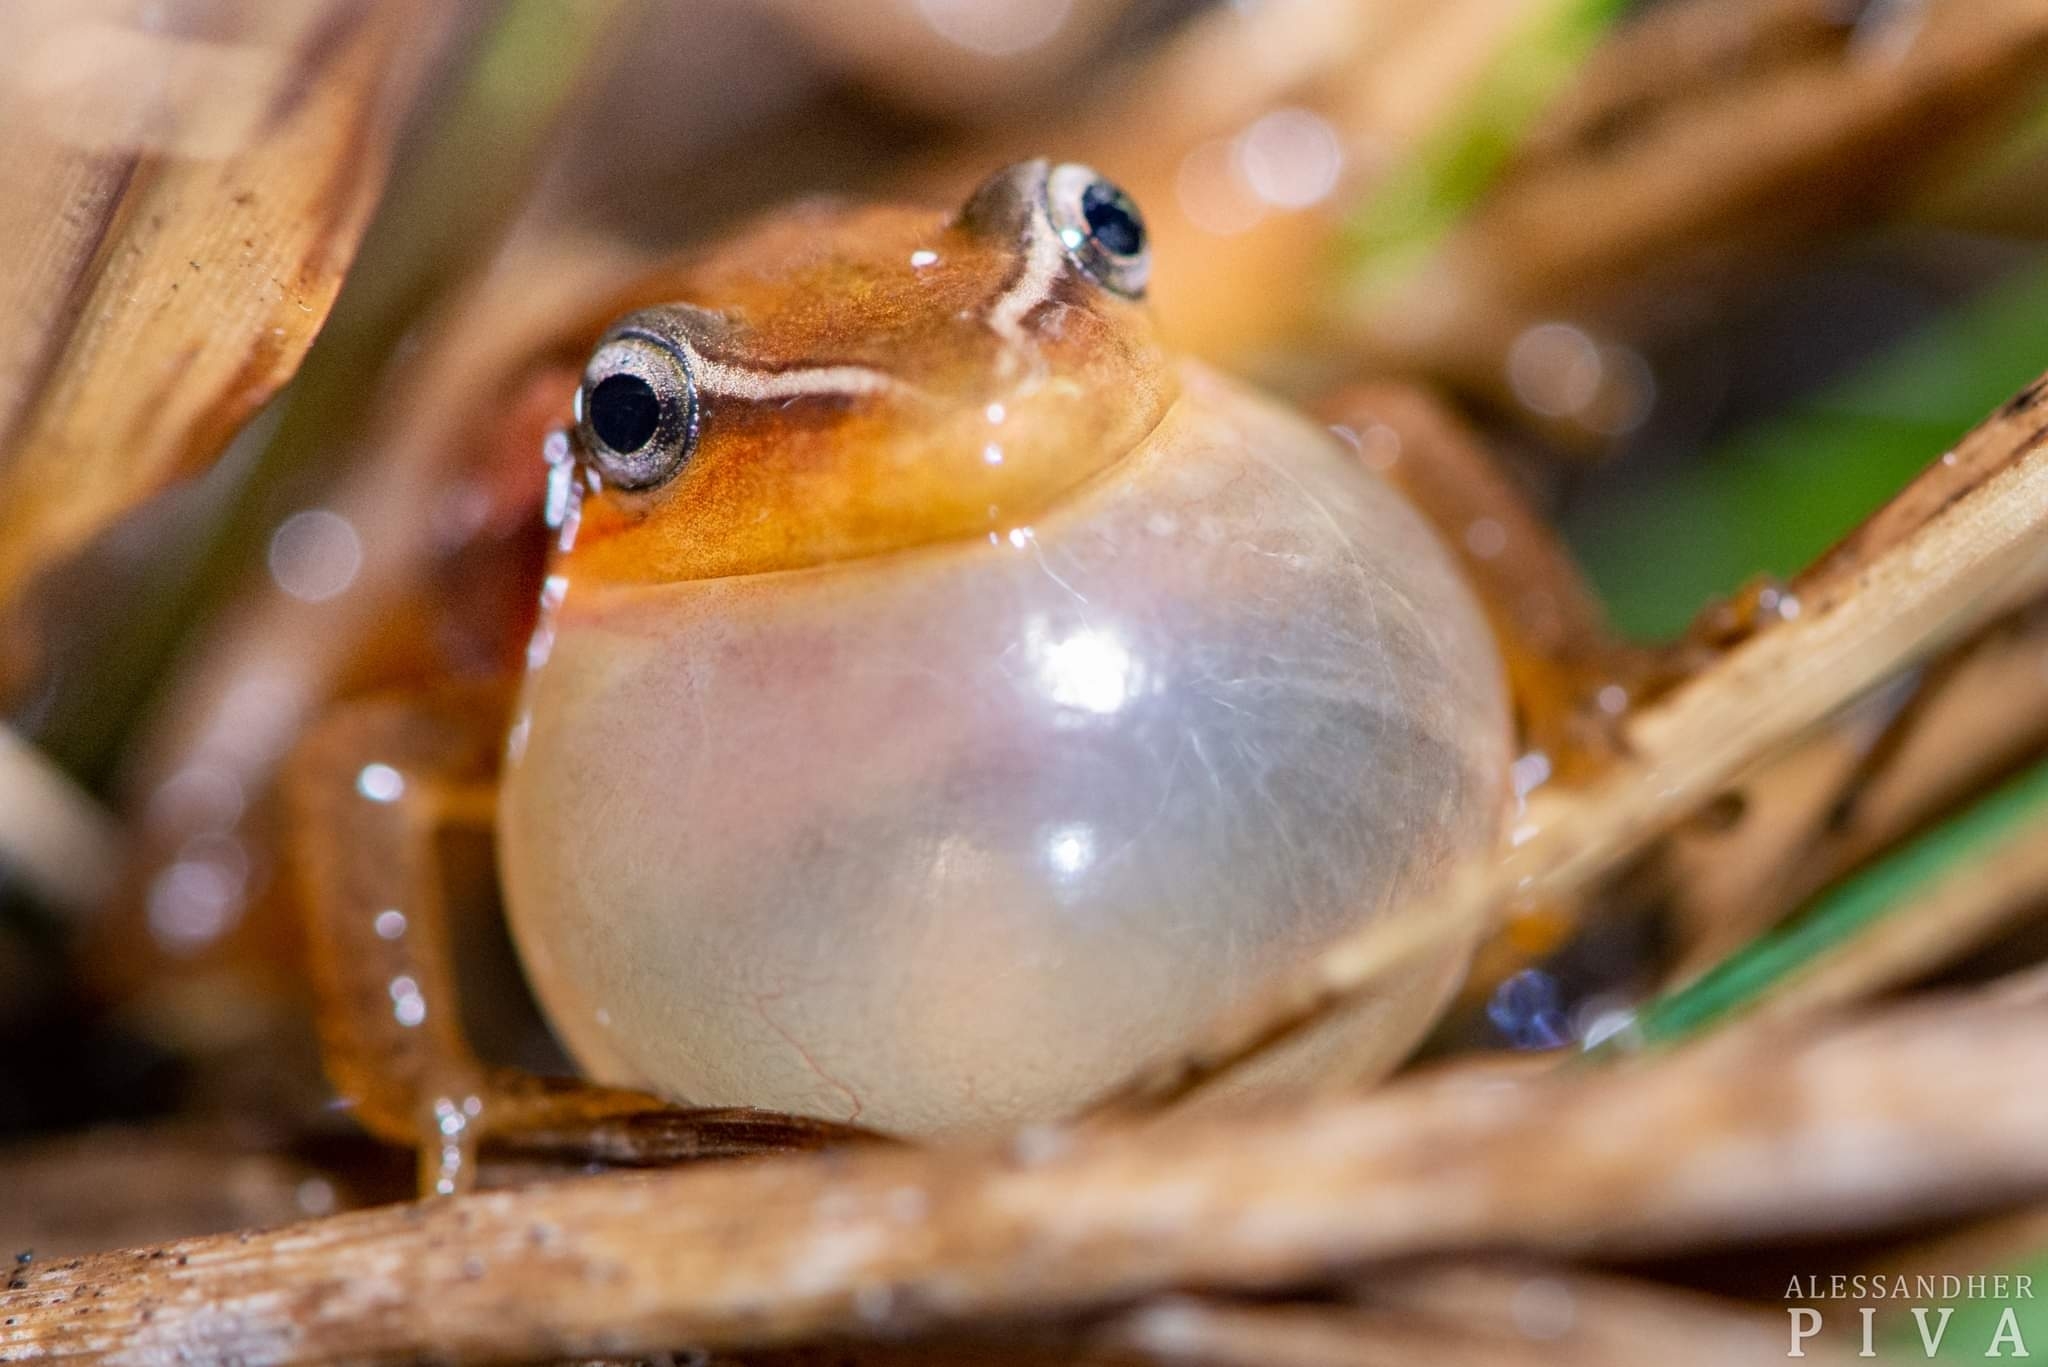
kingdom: Animalia
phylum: Chordata
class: Amphibia
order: Anura
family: Hylidae
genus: Scinax
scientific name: Scinax squalirostris
